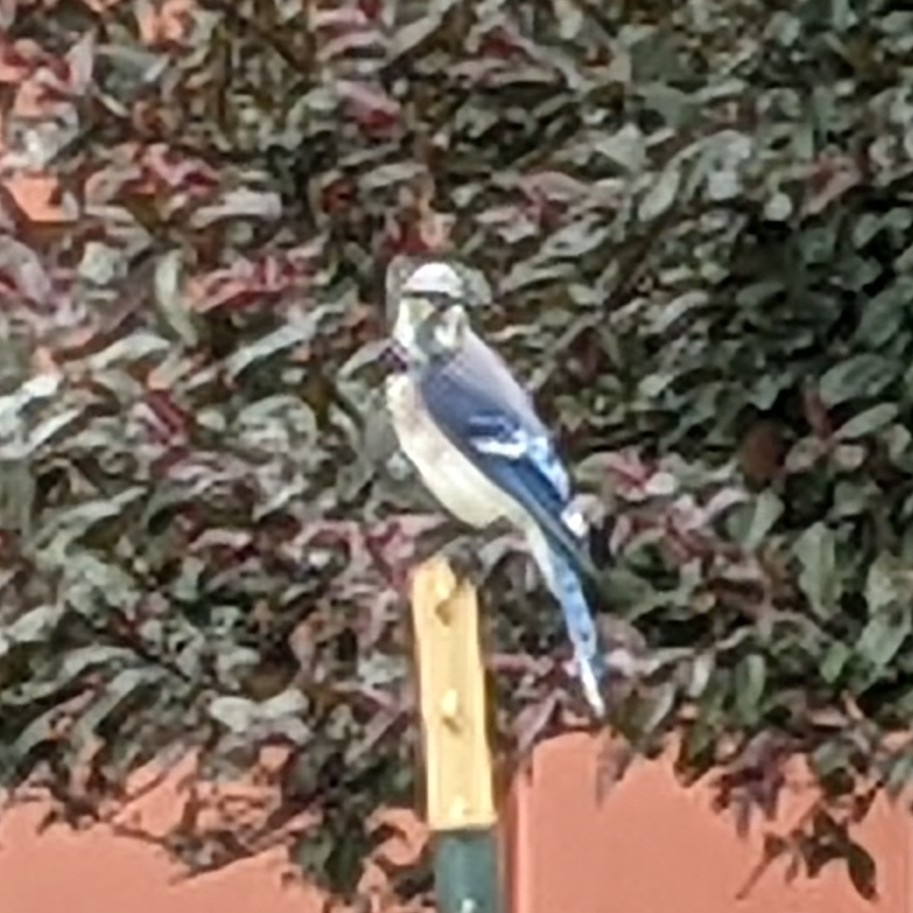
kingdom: Animalia
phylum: Chordata
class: Aves
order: Passeriformes
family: Corvidae
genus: Cyanocitta
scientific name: Cyanocitta cristata
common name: Blue jay
